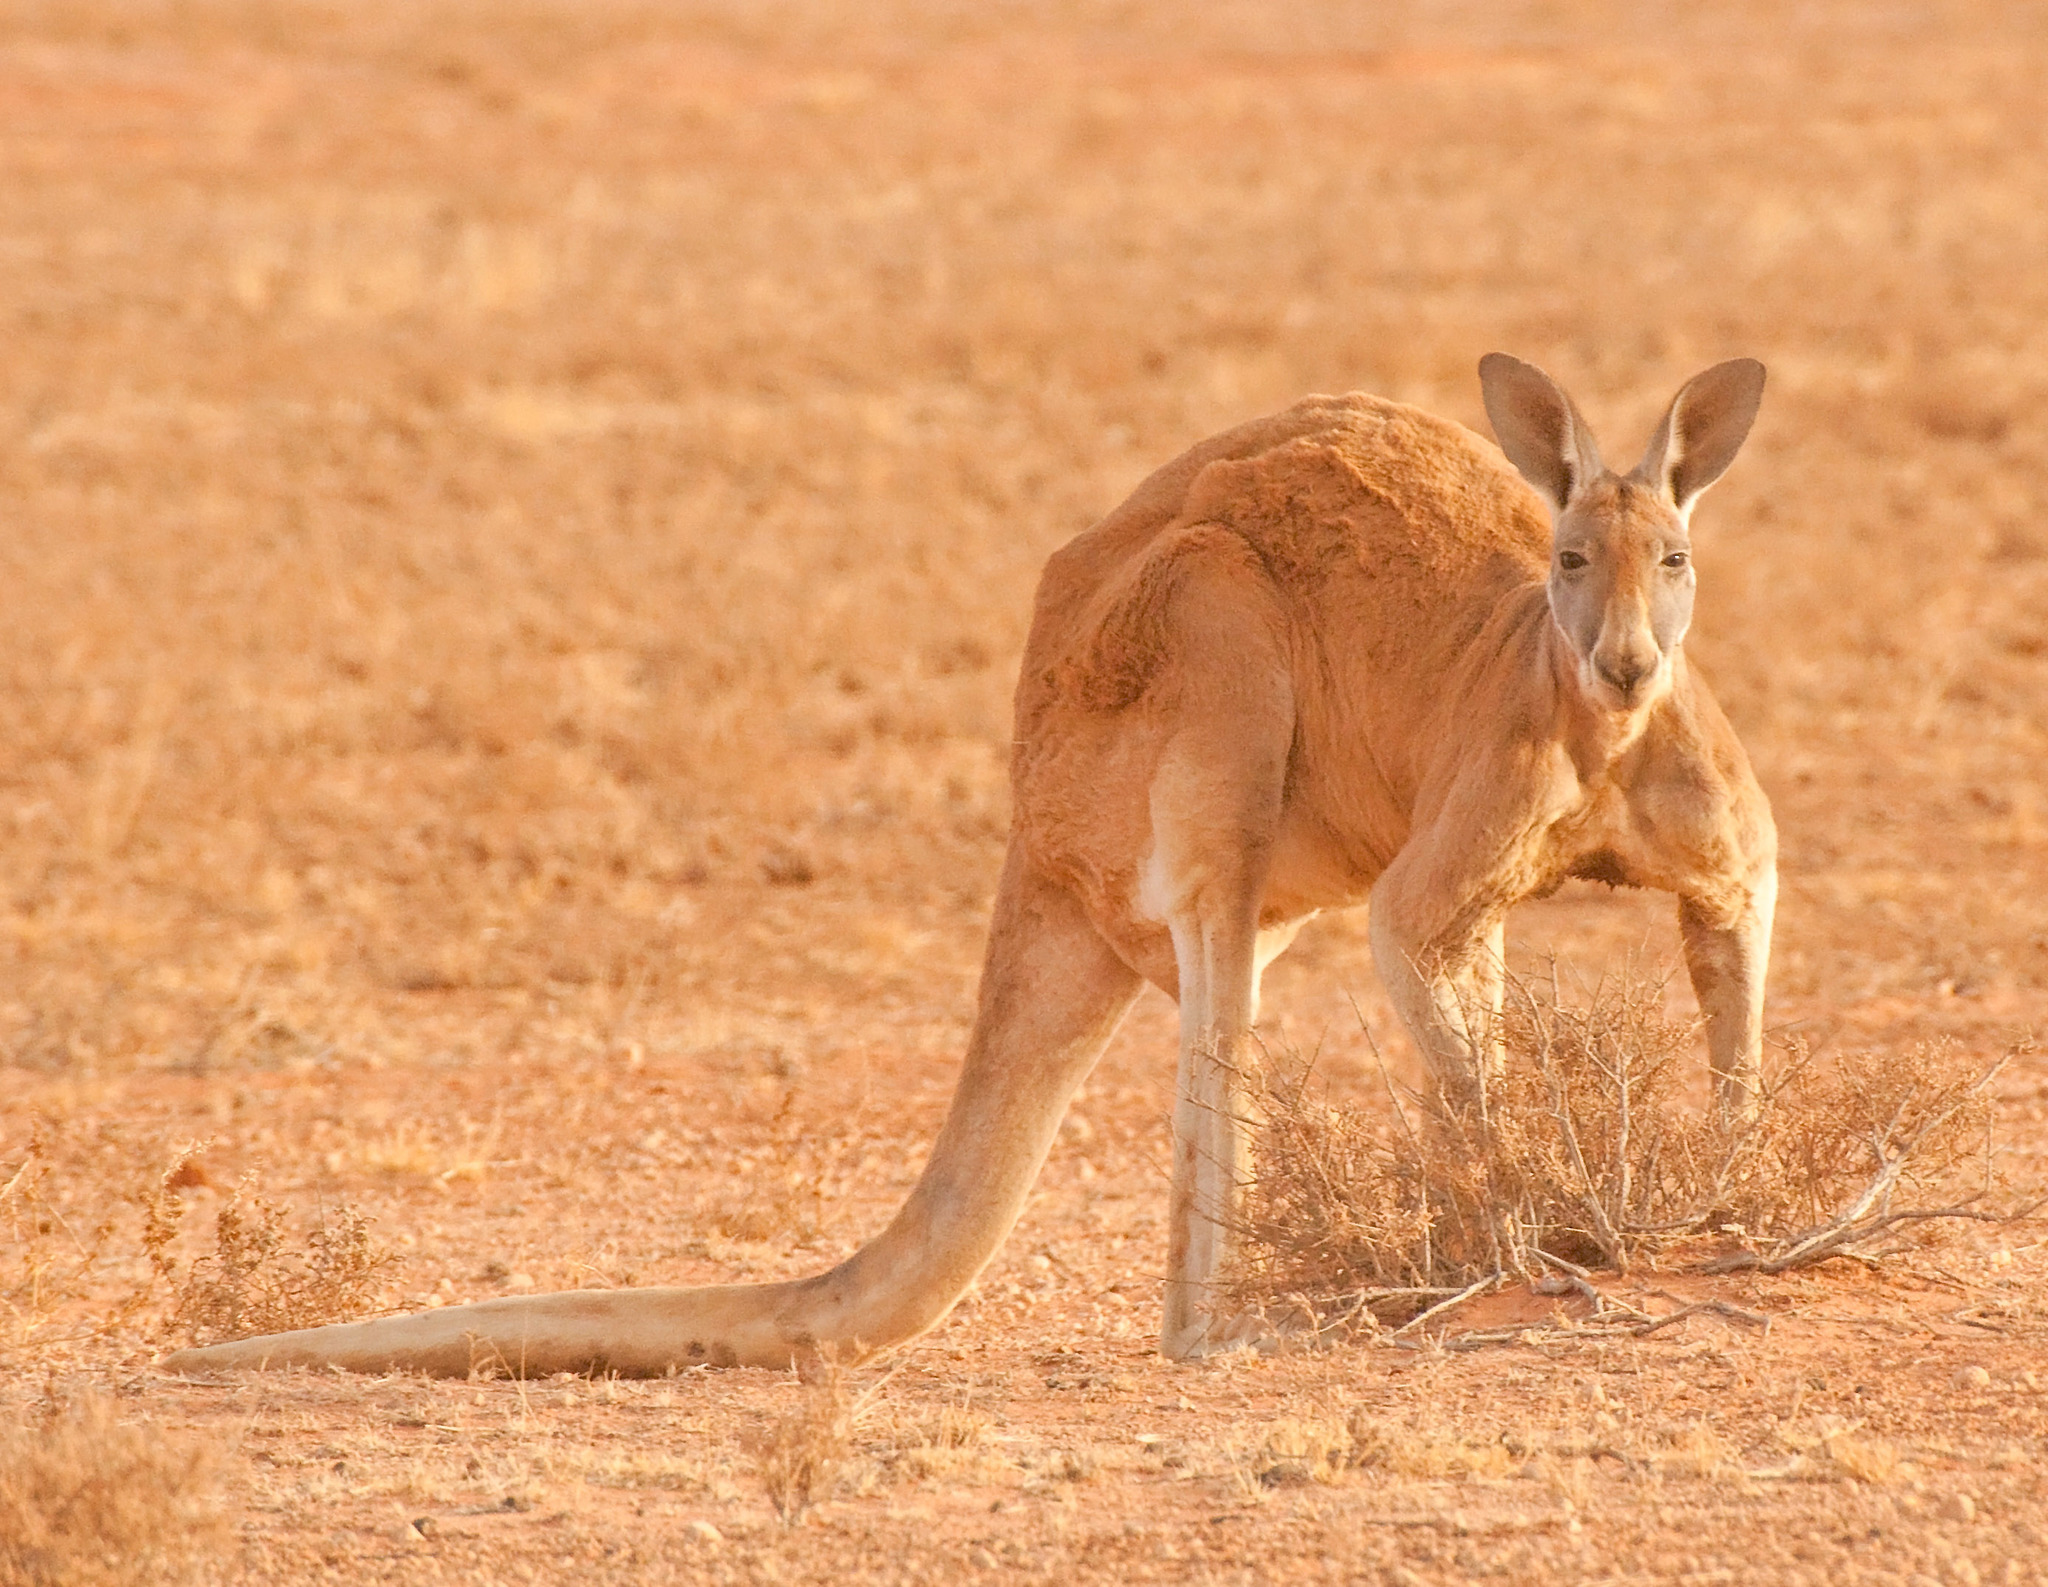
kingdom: Animalia
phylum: Chordata
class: Mammalia
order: Diprotodontia
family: Macropodidae
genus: Macropus
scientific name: Macropus rufus
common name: Red kangaroo
